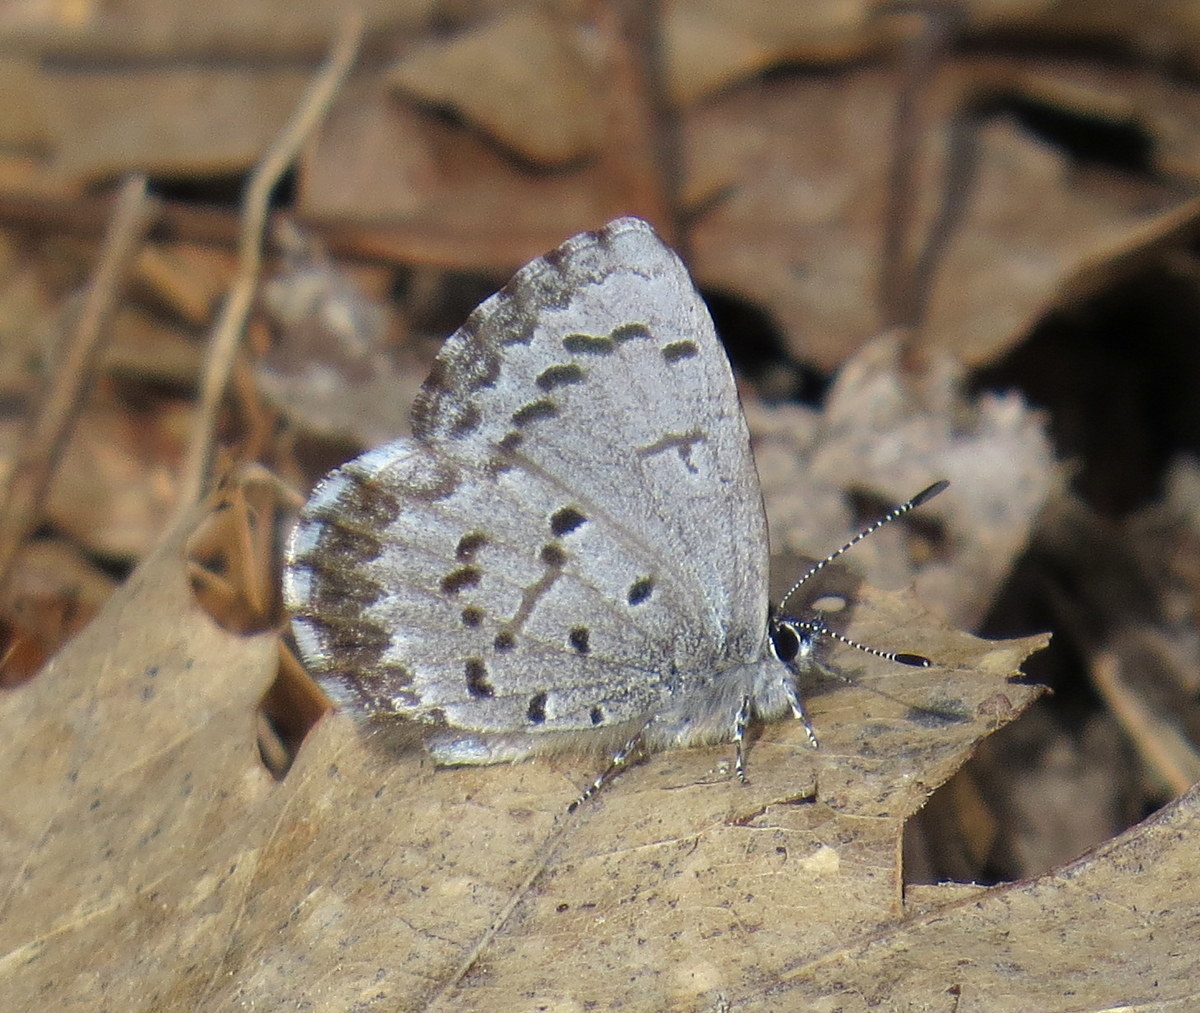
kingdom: Animalia
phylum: Arthropoda
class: Insecta
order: Lepidoptera
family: Lycaenidae
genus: Celastrina
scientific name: Celastrina ladon
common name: Spring azure
